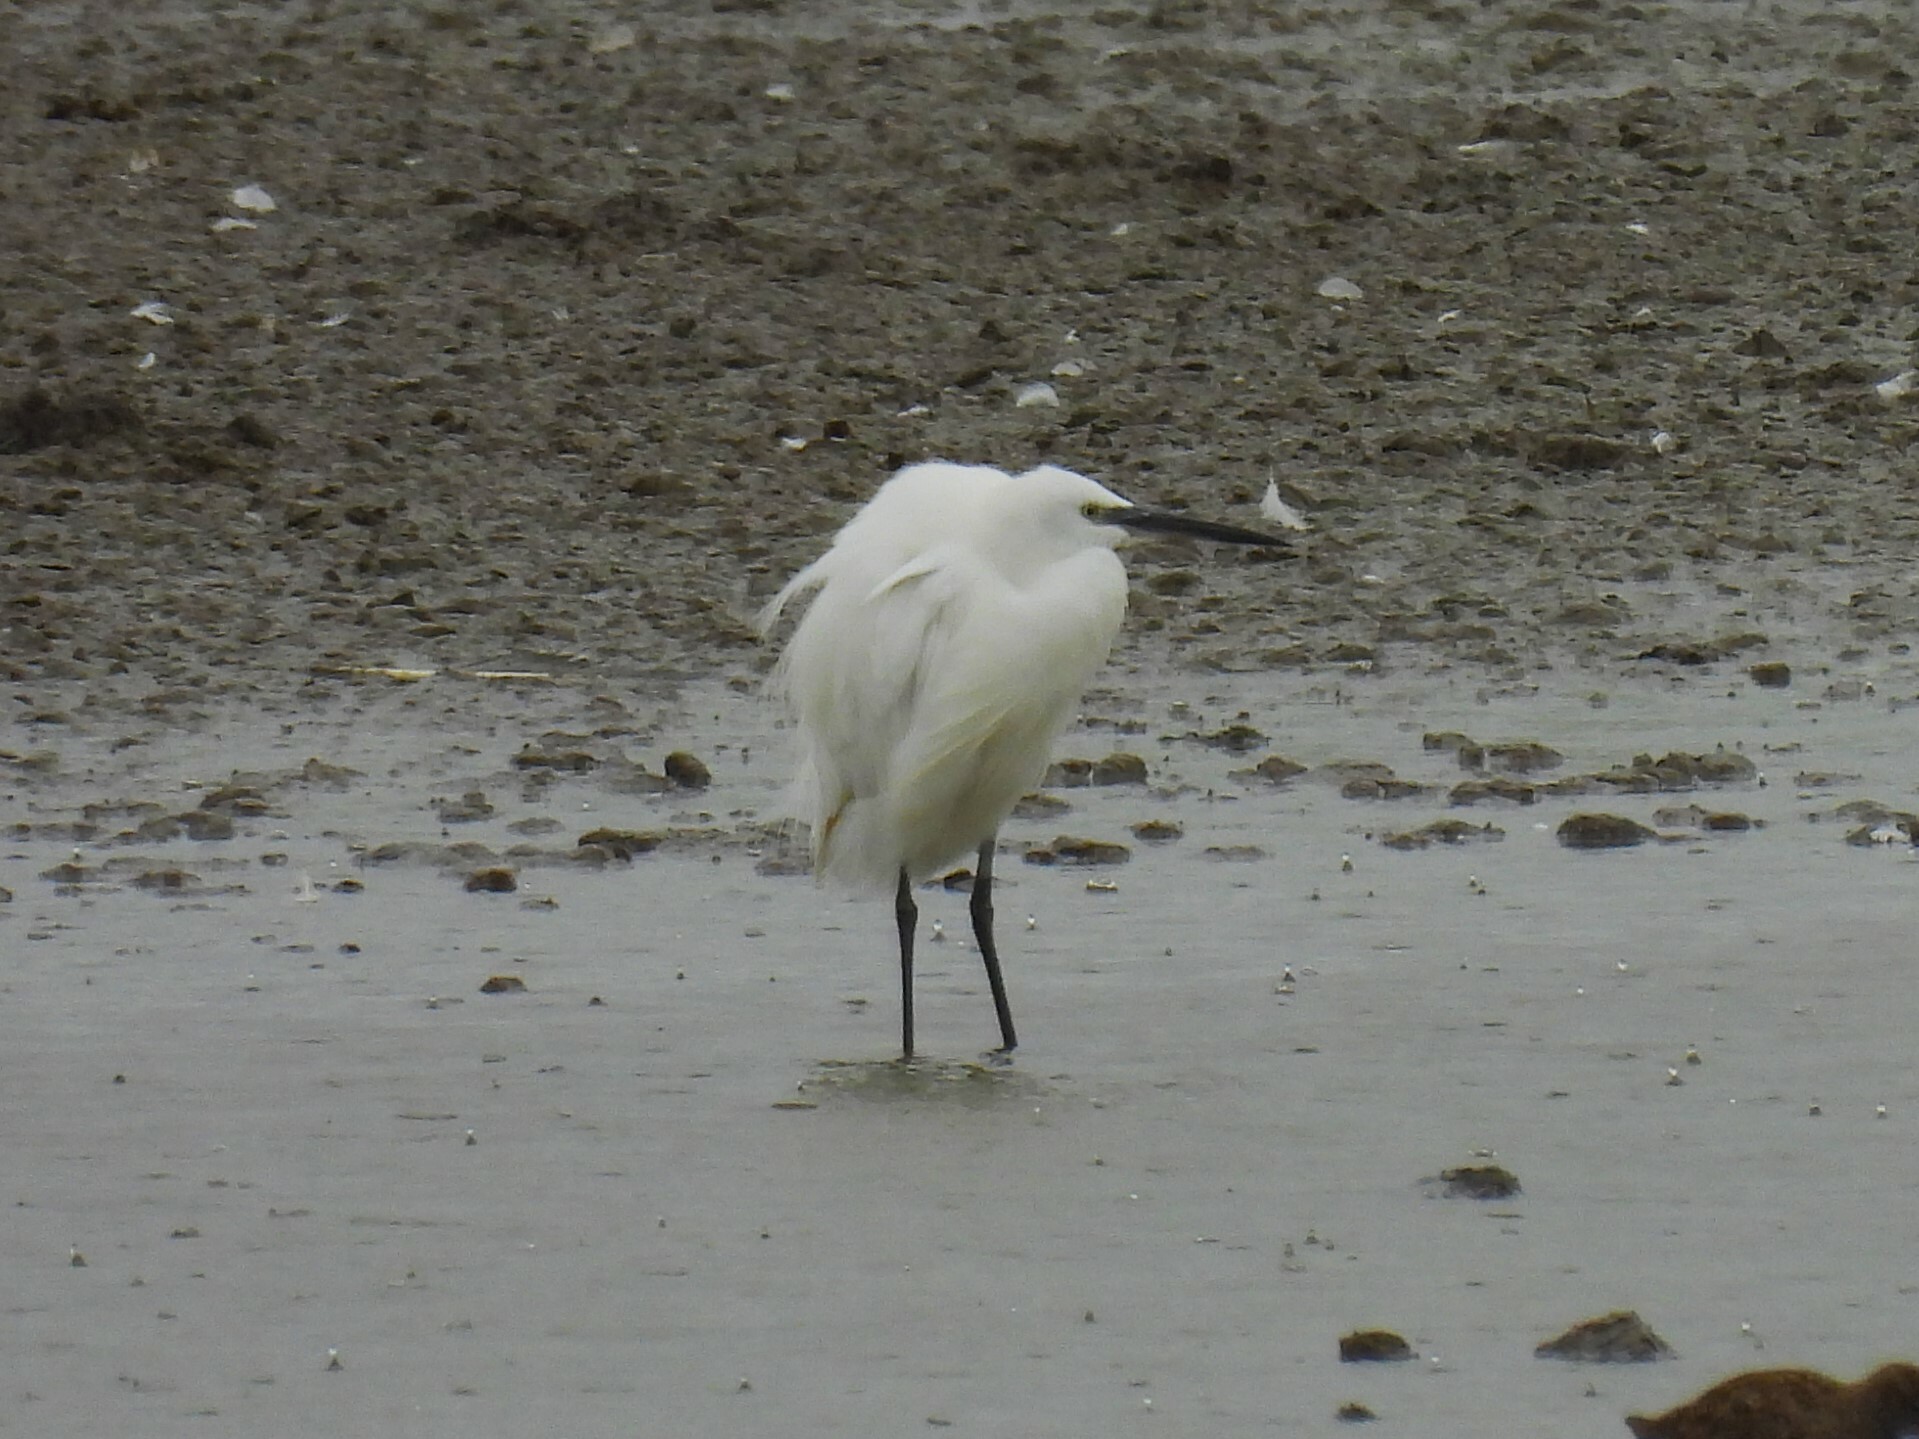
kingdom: Animalia
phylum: Chordata
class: Aves
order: Pelecaniformes
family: Ardeidae
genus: Egretta
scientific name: Egretta garzetta
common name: Little egret
